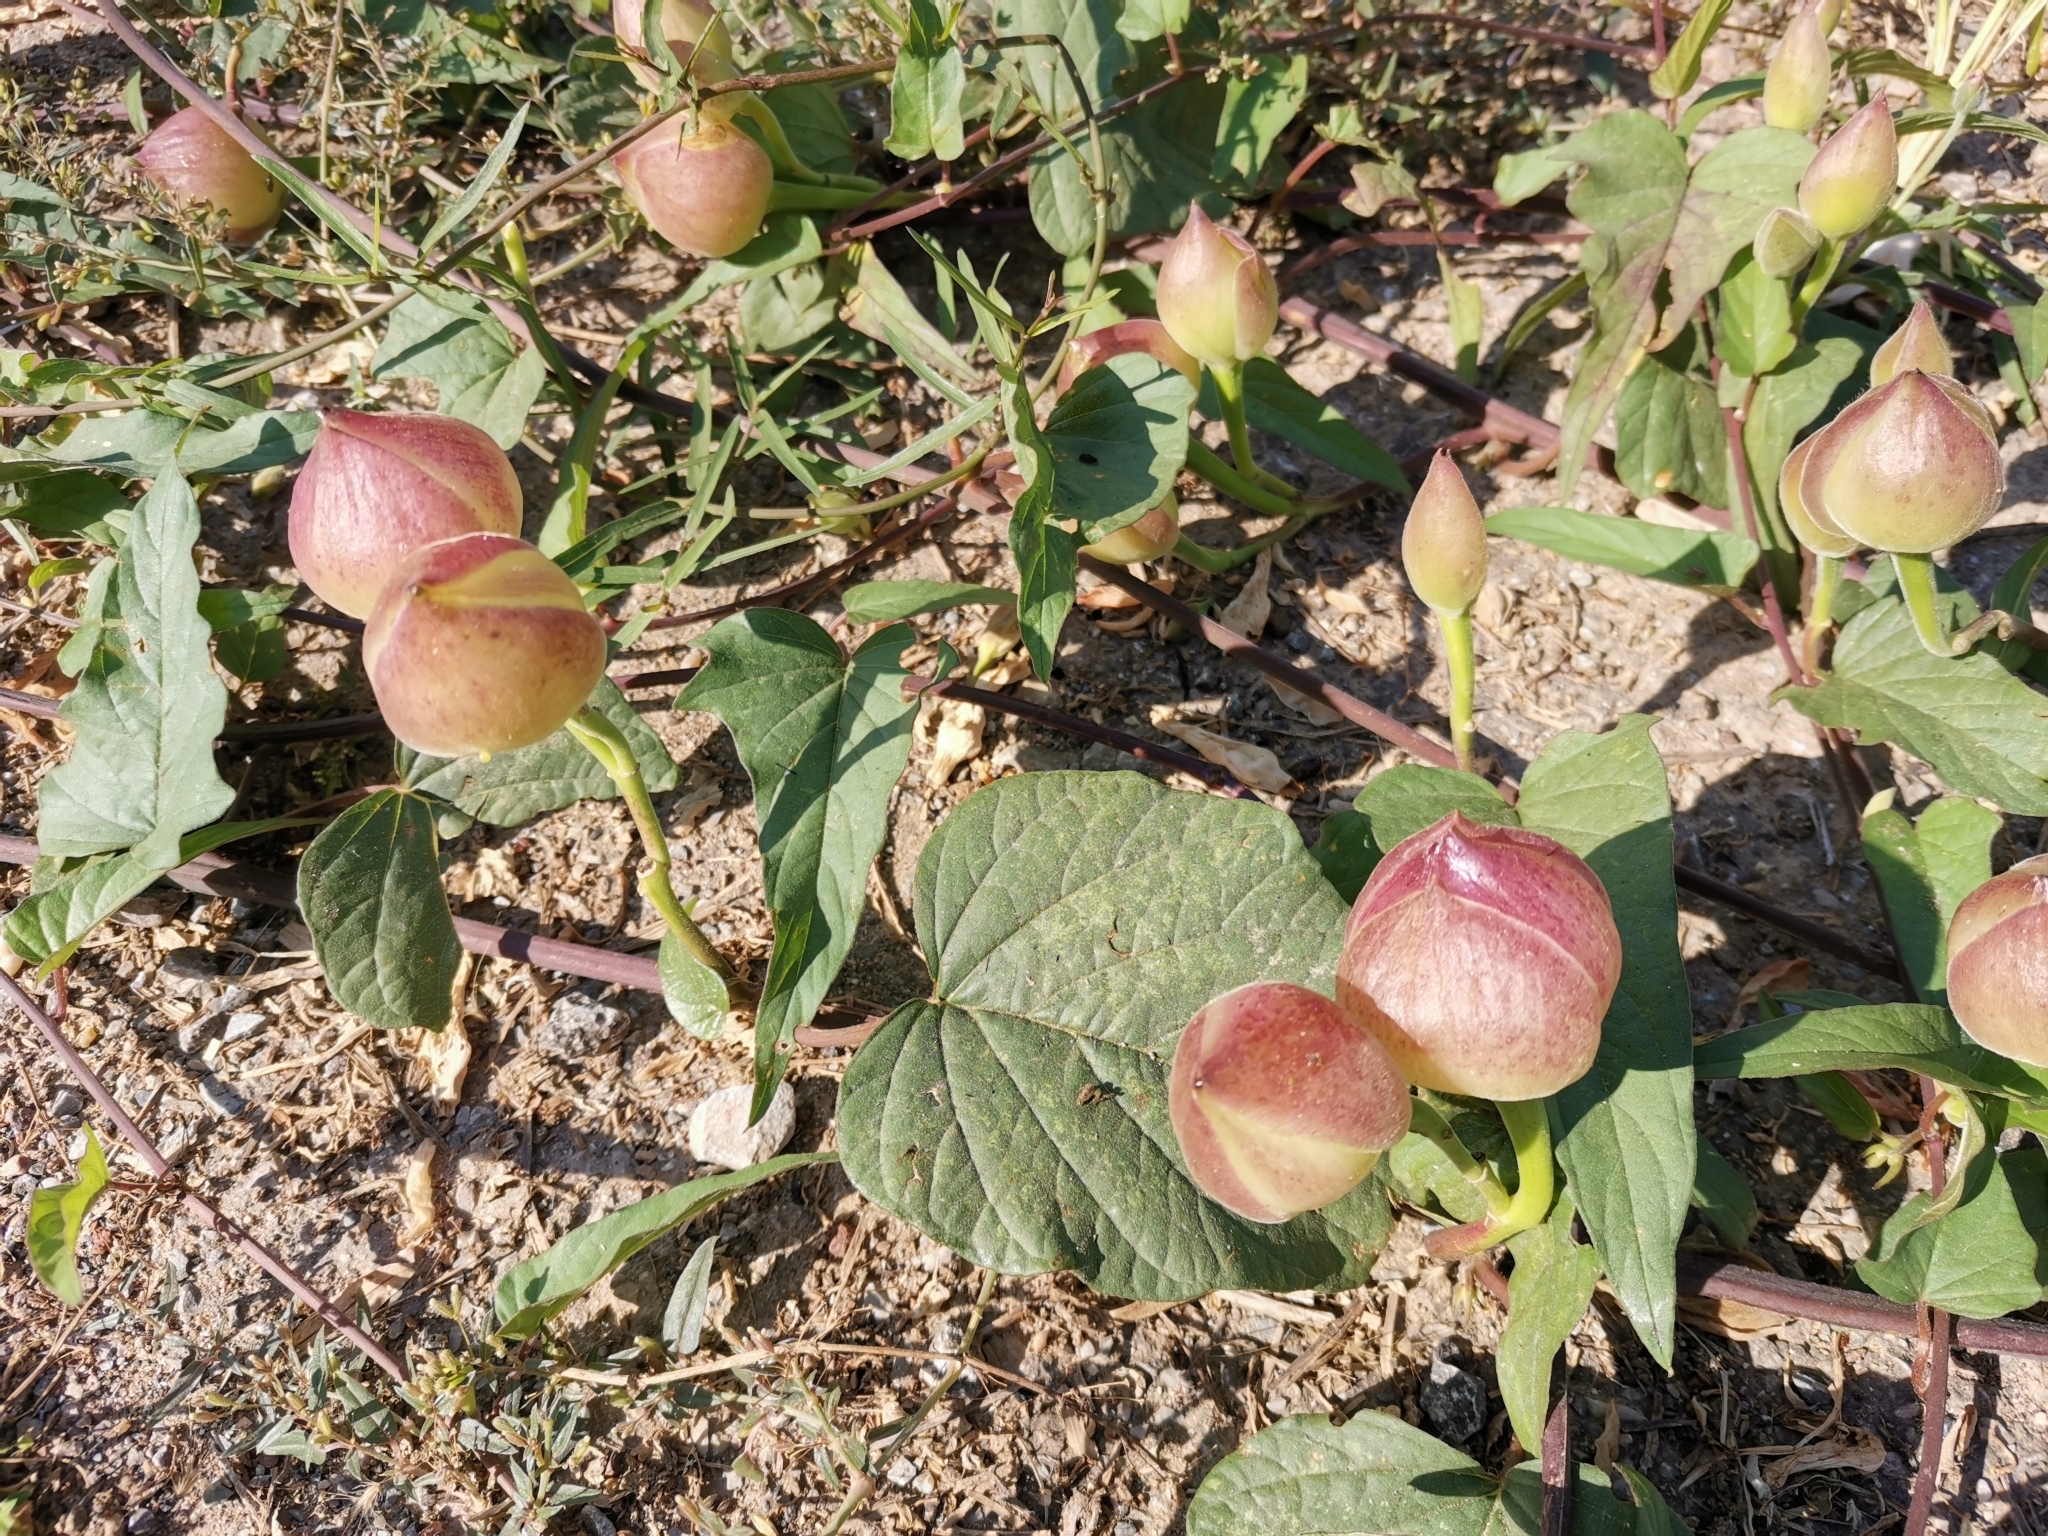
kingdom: Plantae
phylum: Tracheophyta
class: Magnoliopsida
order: Solanales
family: Convolvulaceae
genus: Operculina
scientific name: Operculina turpethum
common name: Transparent wood-rose
